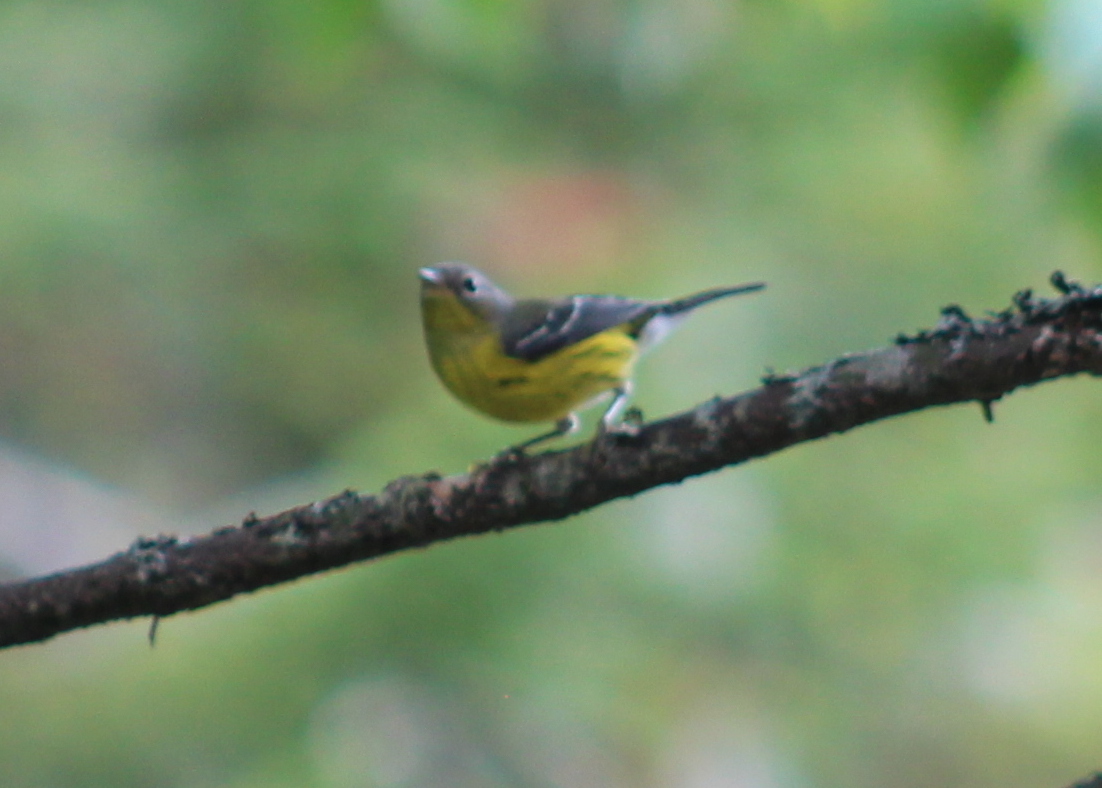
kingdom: Animalia
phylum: Chordata
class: Aves
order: Passeriformes
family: Parulidae
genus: Setophaga
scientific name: Setophaga magnolia
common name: Magnolia warbler
